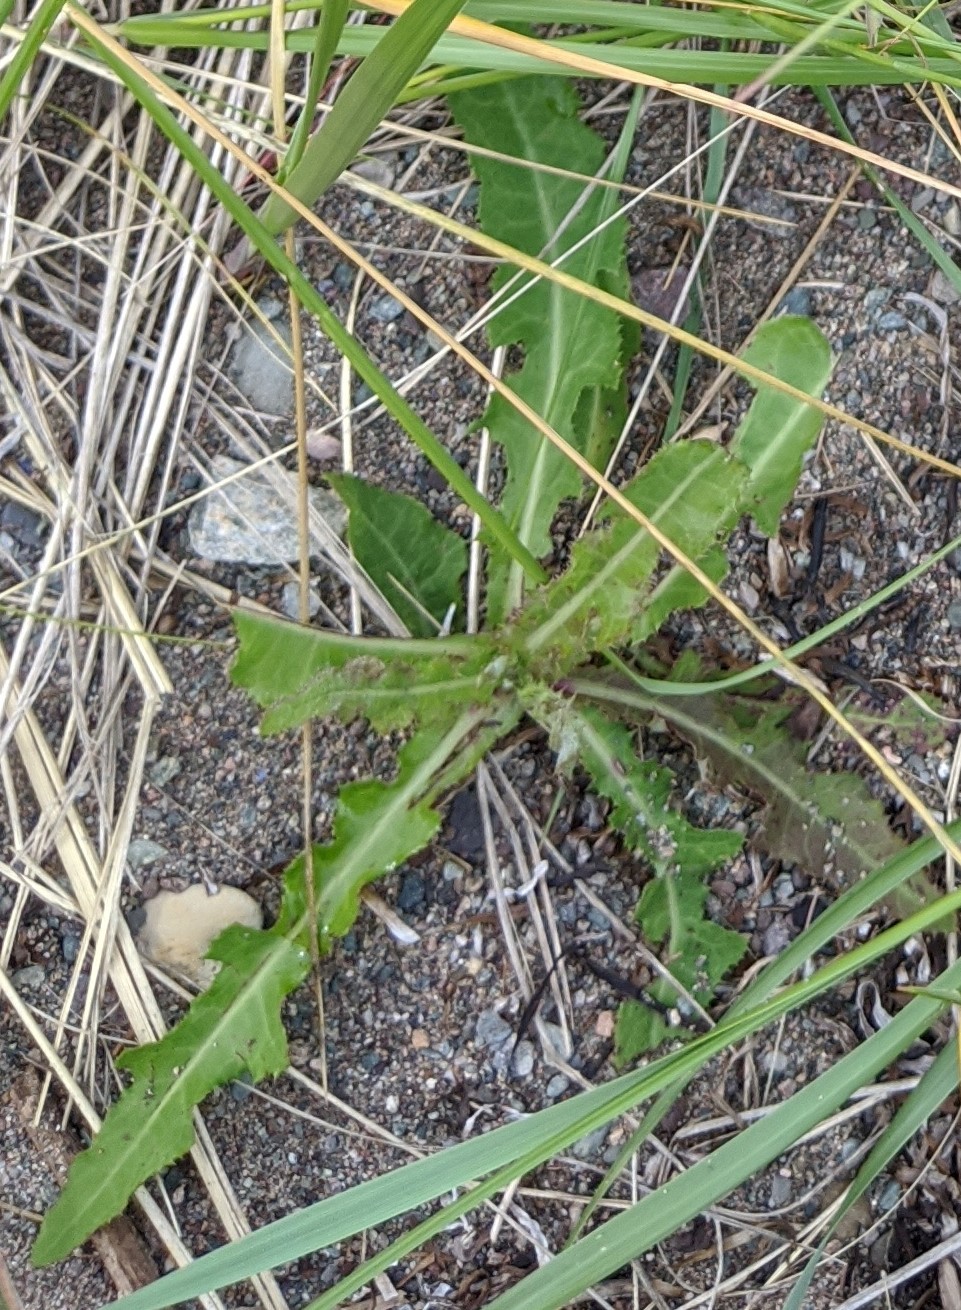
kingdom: Plantae
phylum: Tracheophyta
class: Magnoliopsida
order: Asterales
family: Asteraceae
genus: Taraxacum
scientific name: Taraxacum officinale
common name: Common dandelion
